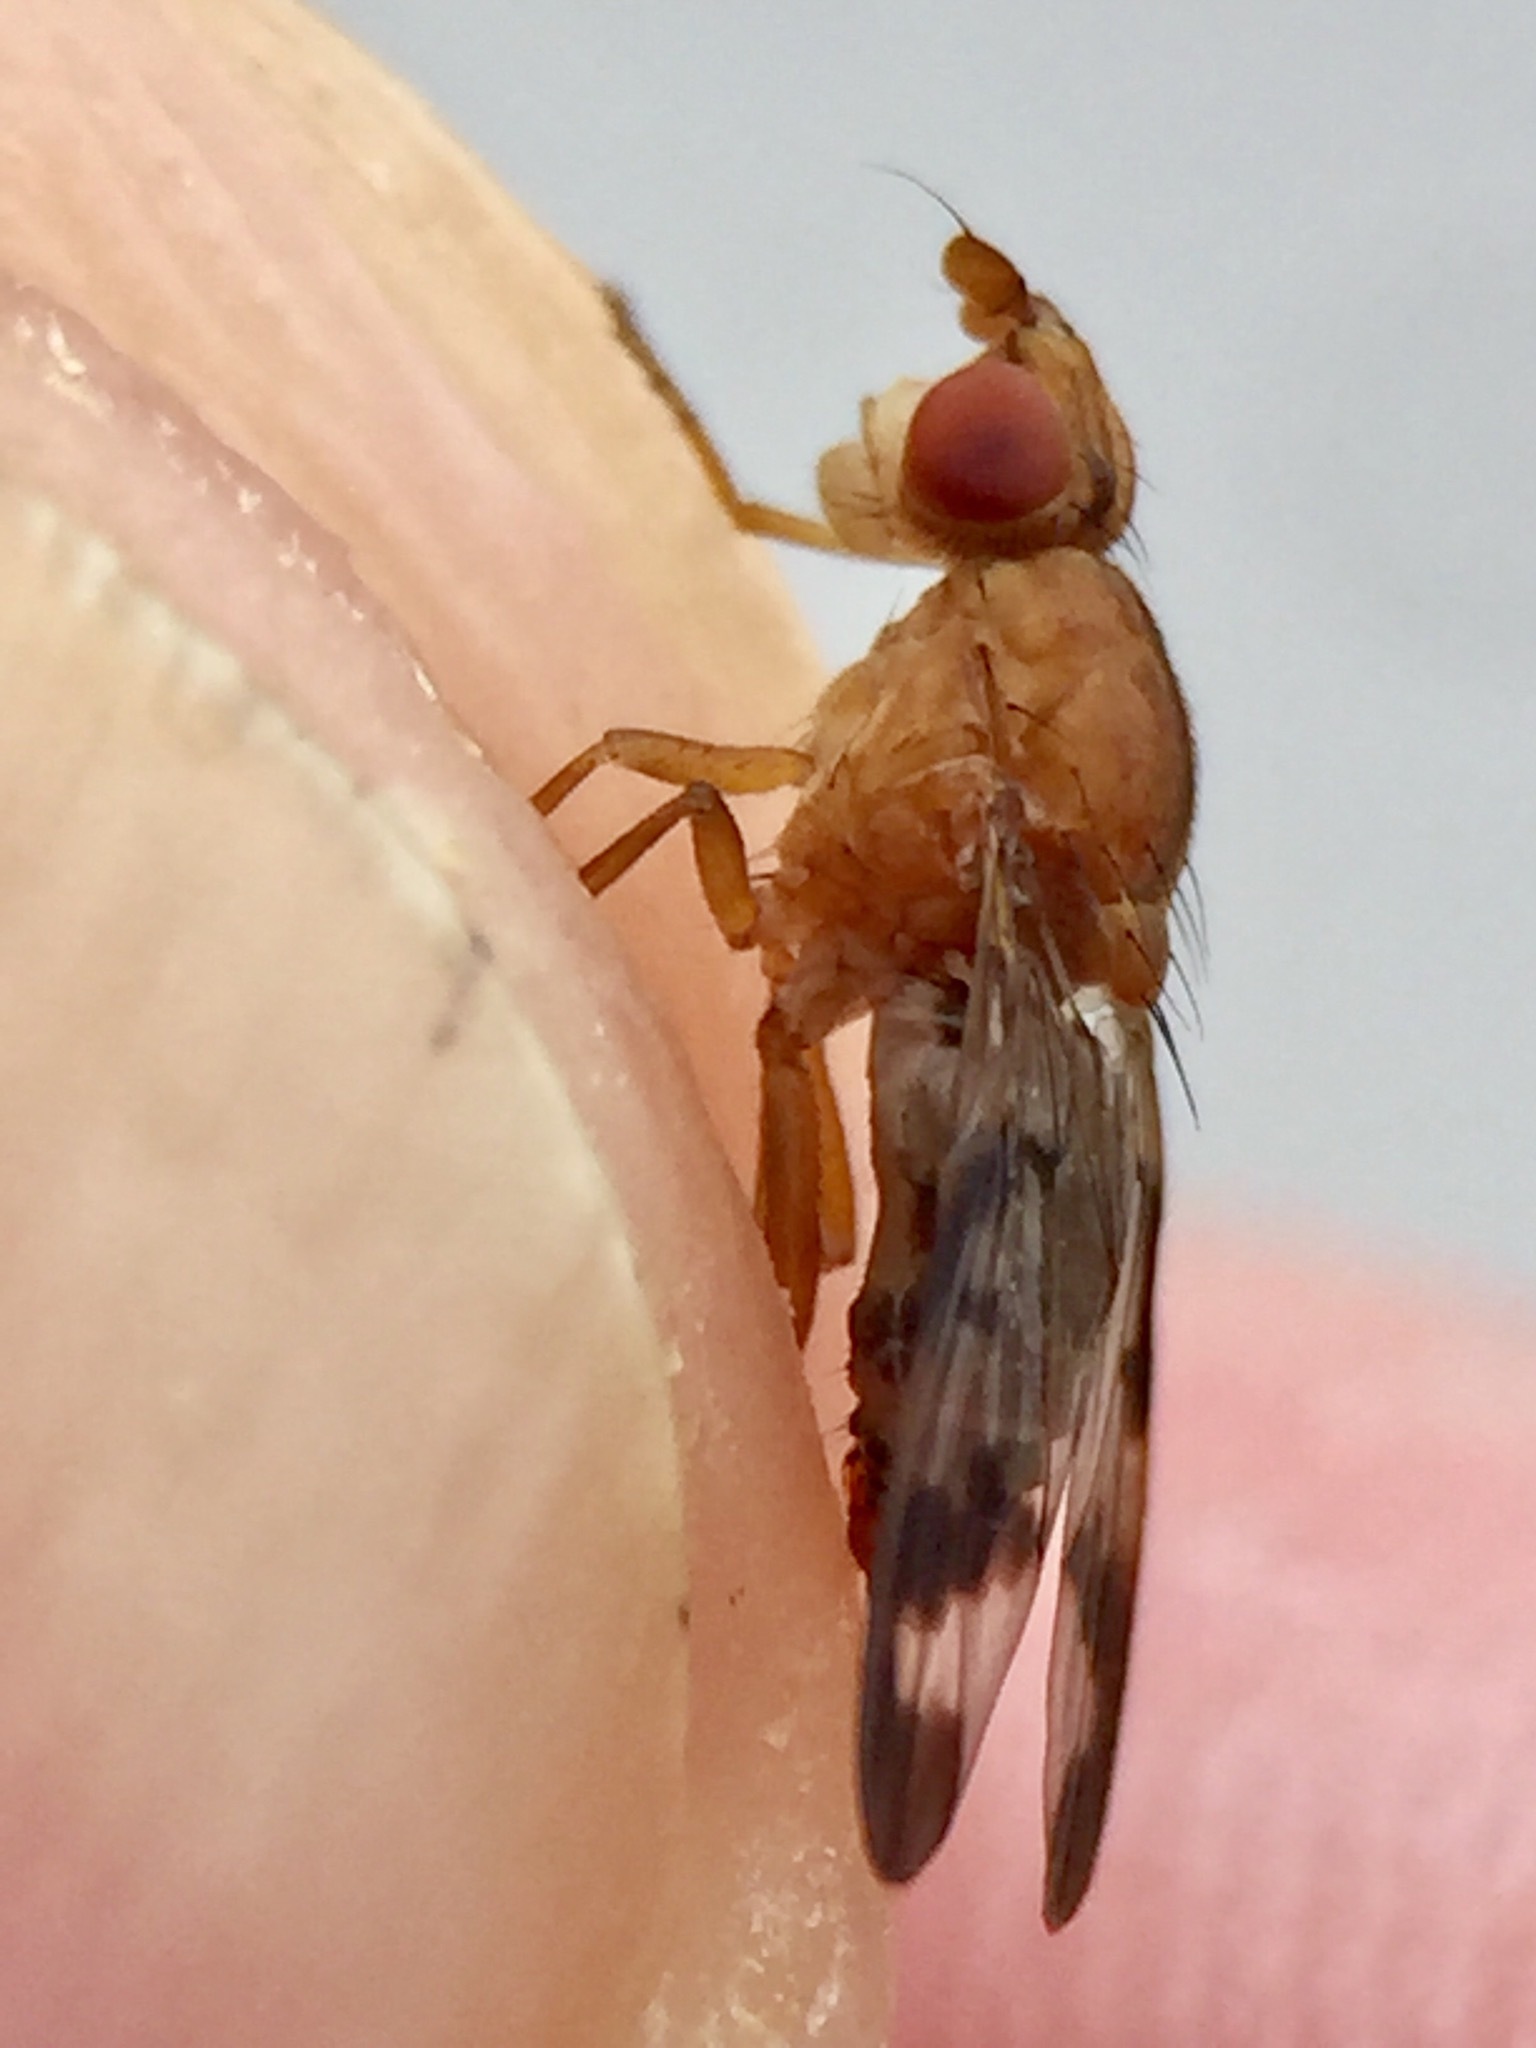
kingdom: Animalia
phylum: Arthropoda
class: Insecta
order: Diptera
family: Sciomyzidae
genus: Prosochaeta
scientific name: Prosochaeta prima
